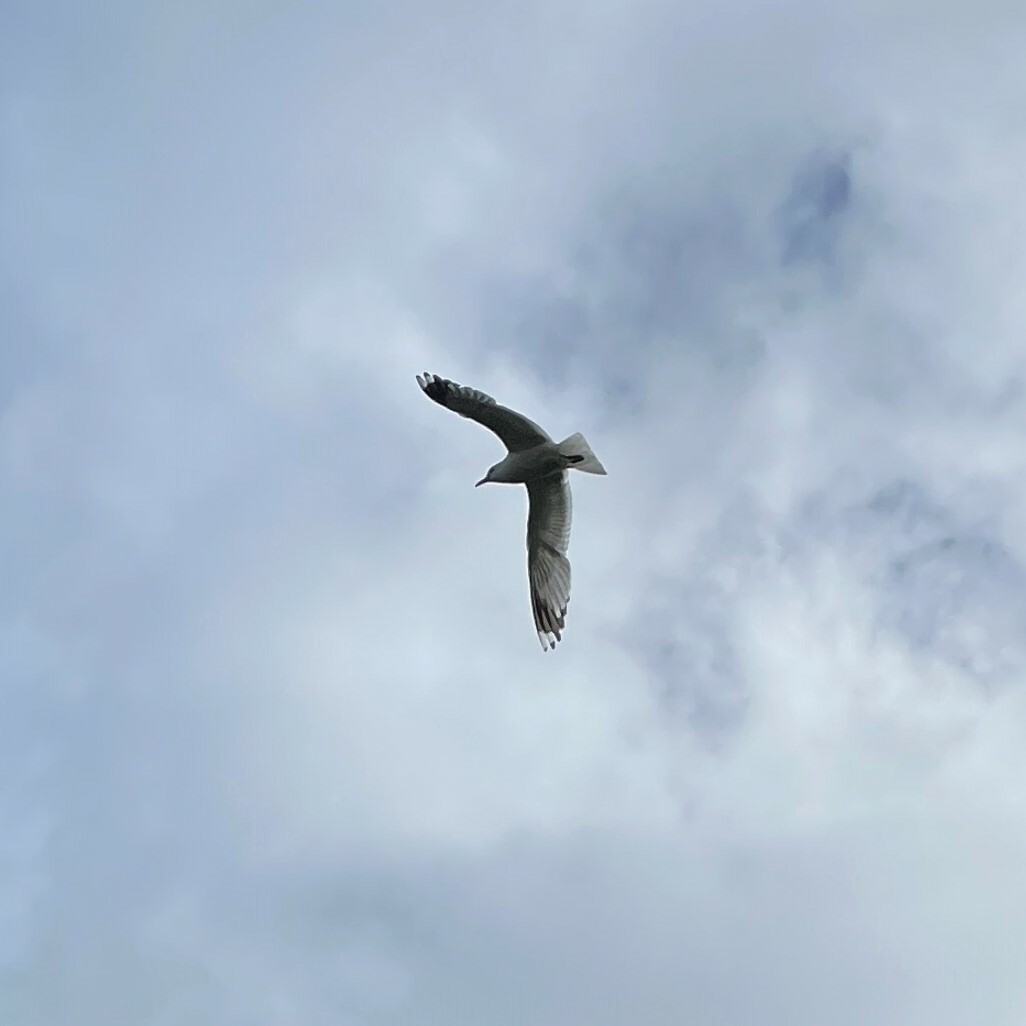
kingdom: Animalia
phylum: Chordata
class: Aves
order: Charadriiformes
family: Laridae
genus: Larus
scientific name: Larus canus
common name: Mew gull
